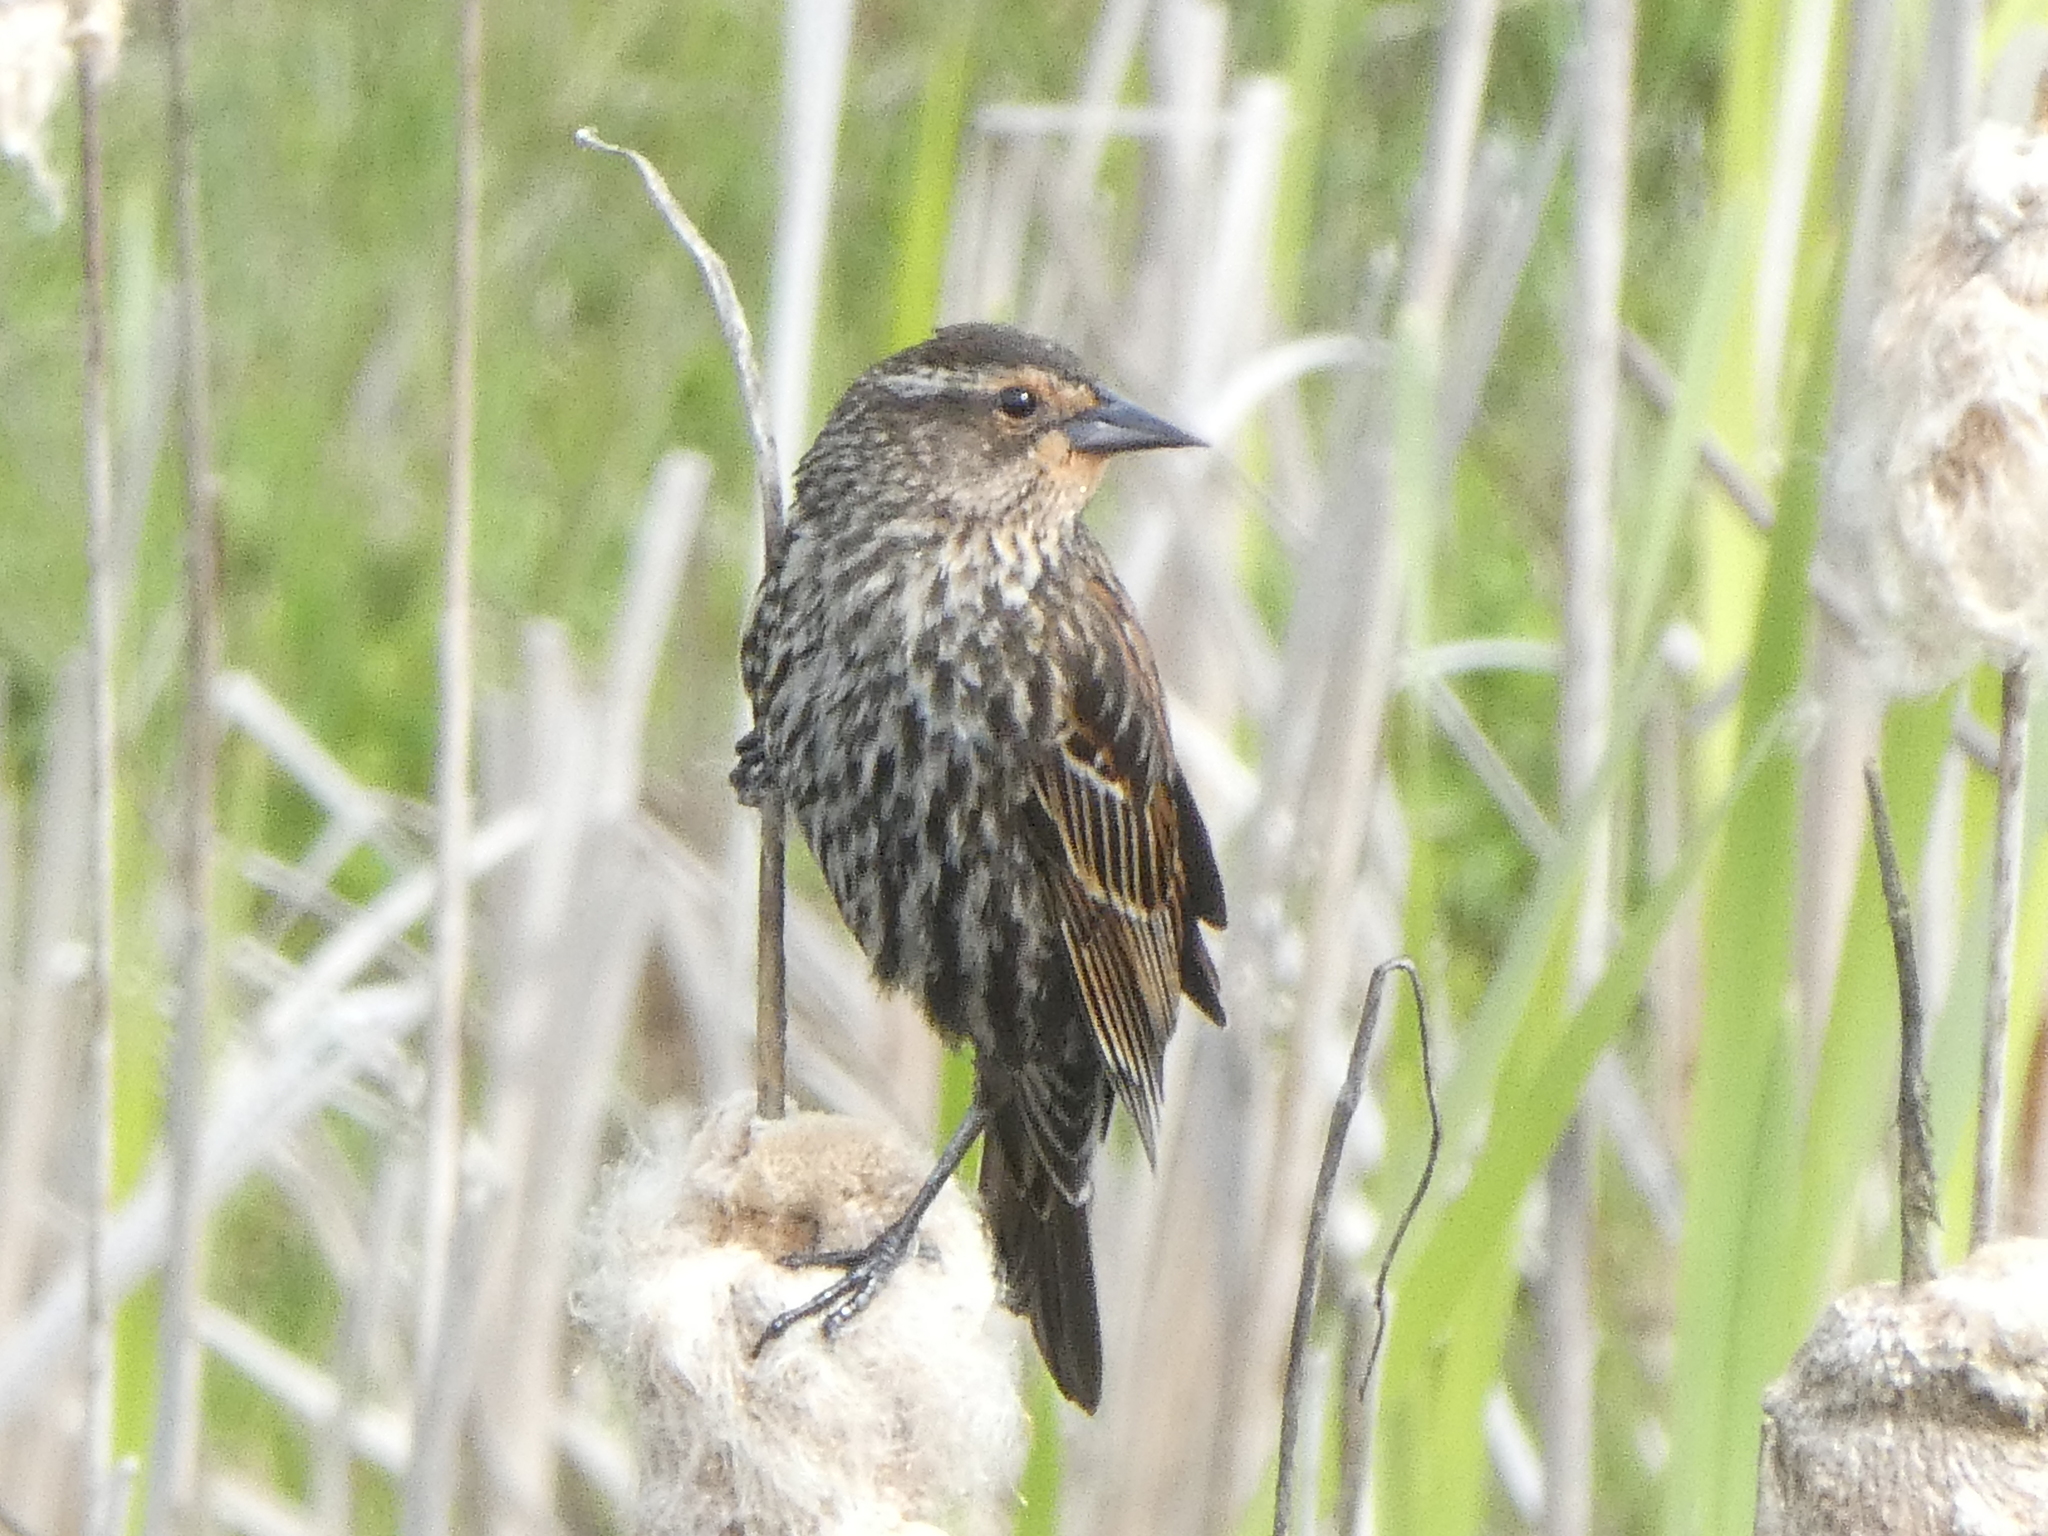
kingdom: Animalia
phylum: Chordata
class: Aves
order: Passeriformes
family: Icteridae
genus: Agelaius
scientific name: Agelaius phoeniceus
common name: Red-winged blackbird
